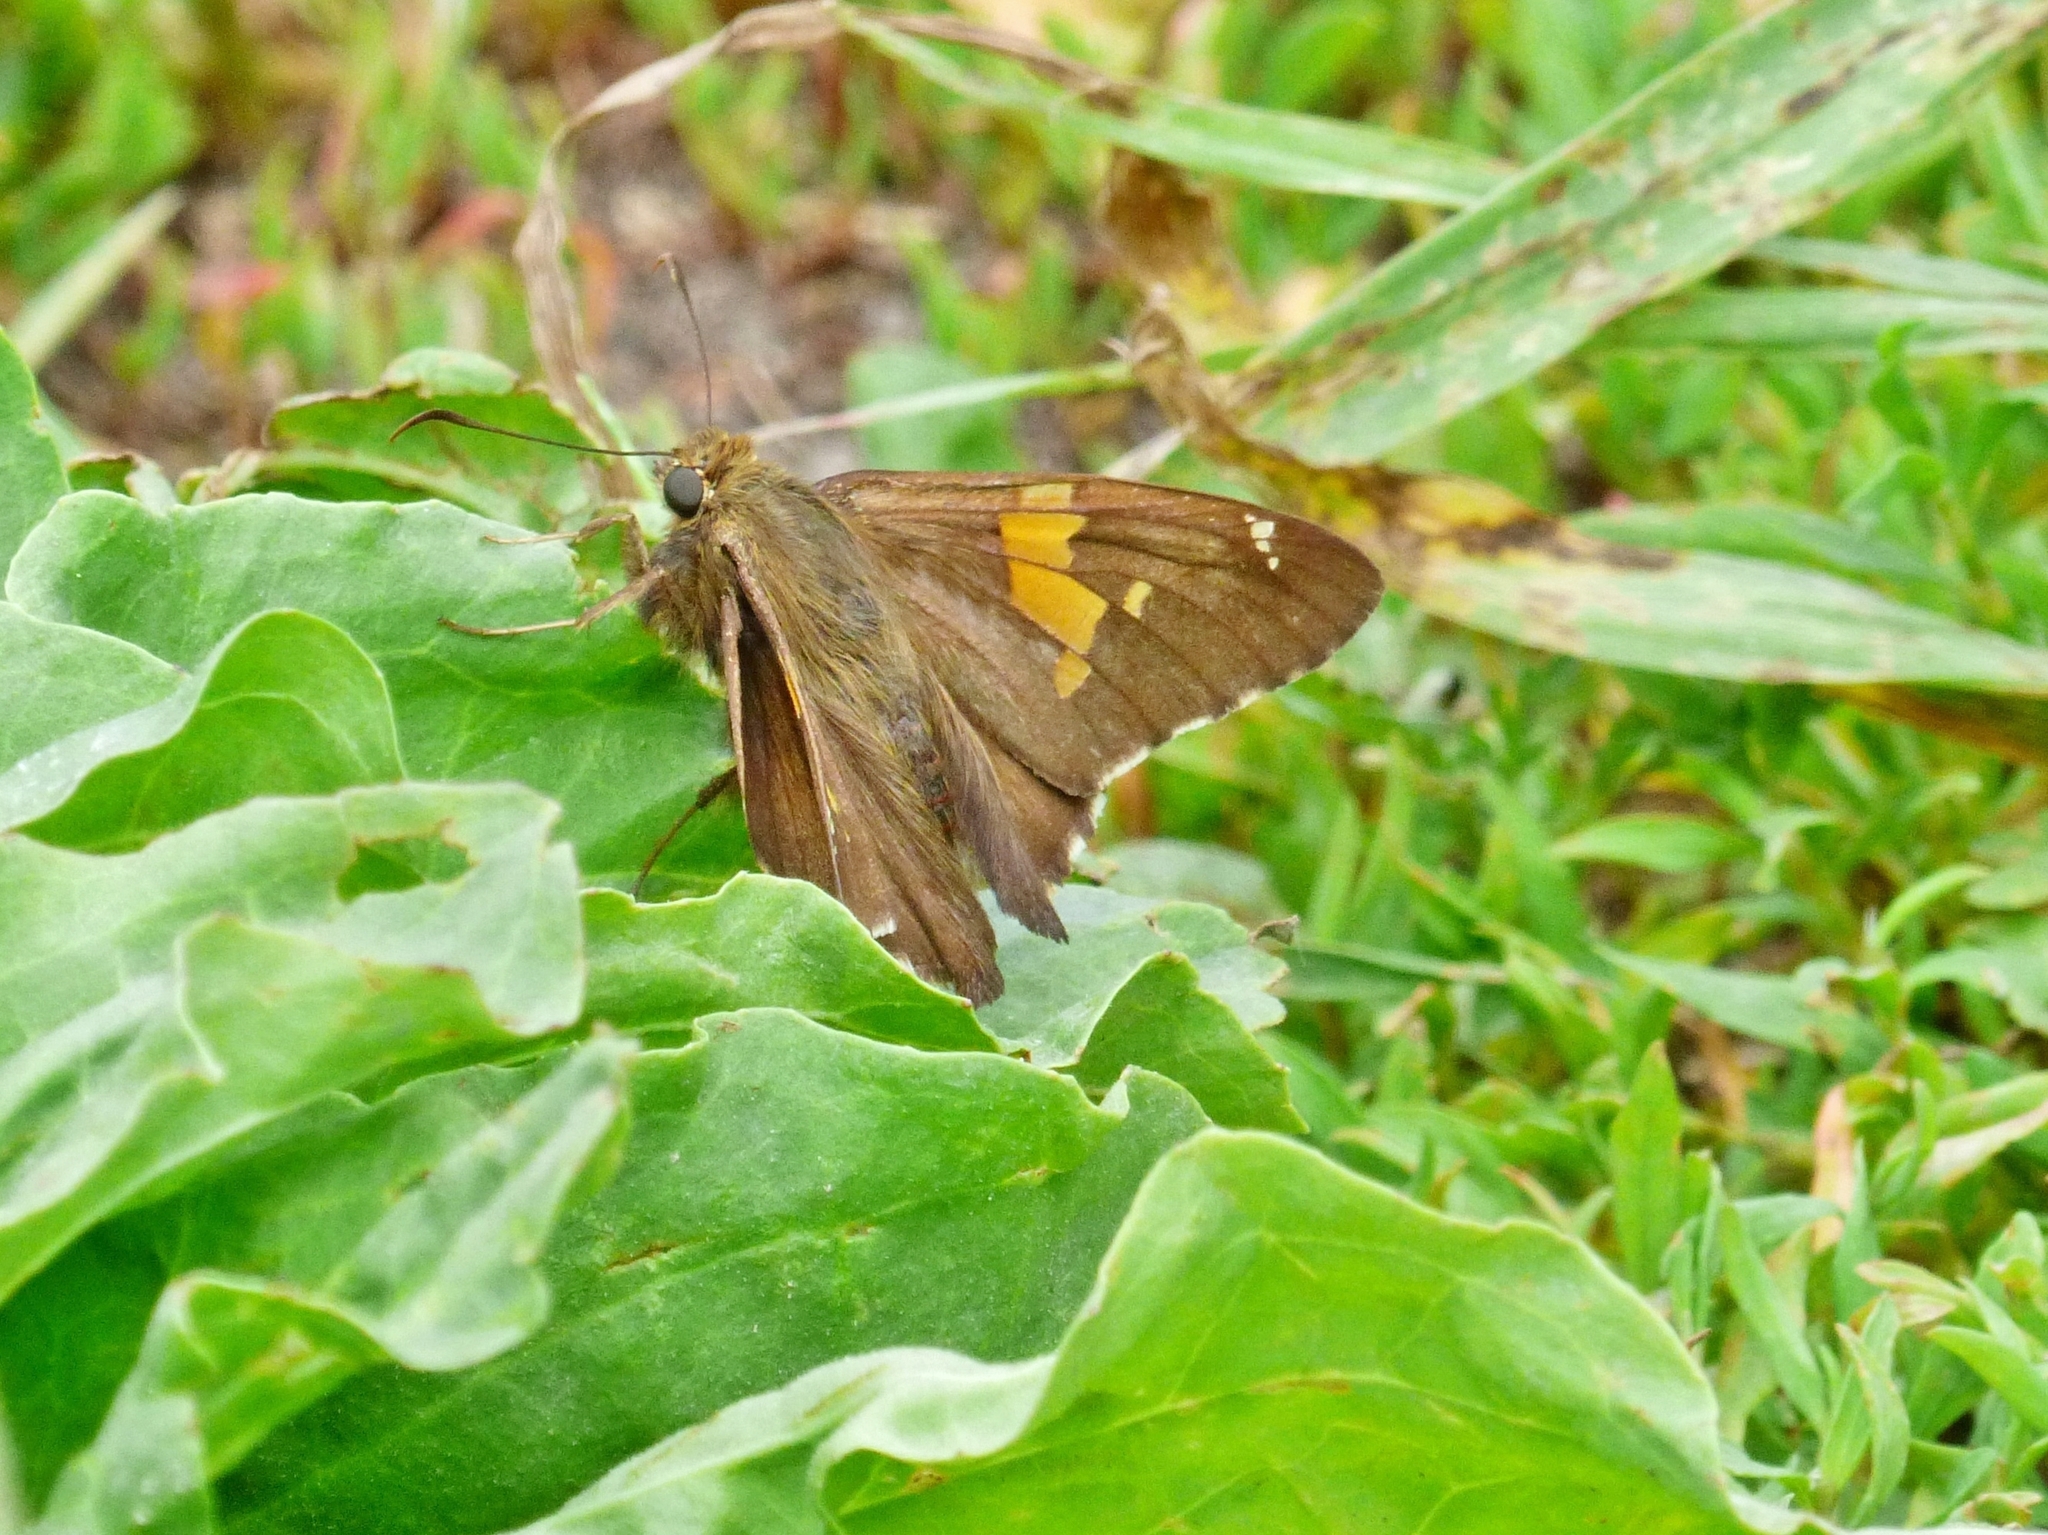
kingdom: Animalia
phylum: Arthropoda
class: Insecta
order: Lepidoptera
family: Hesperiidae
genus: Epargyreus
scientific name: Epargyreus clarus
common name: Silver-spotted skipper
